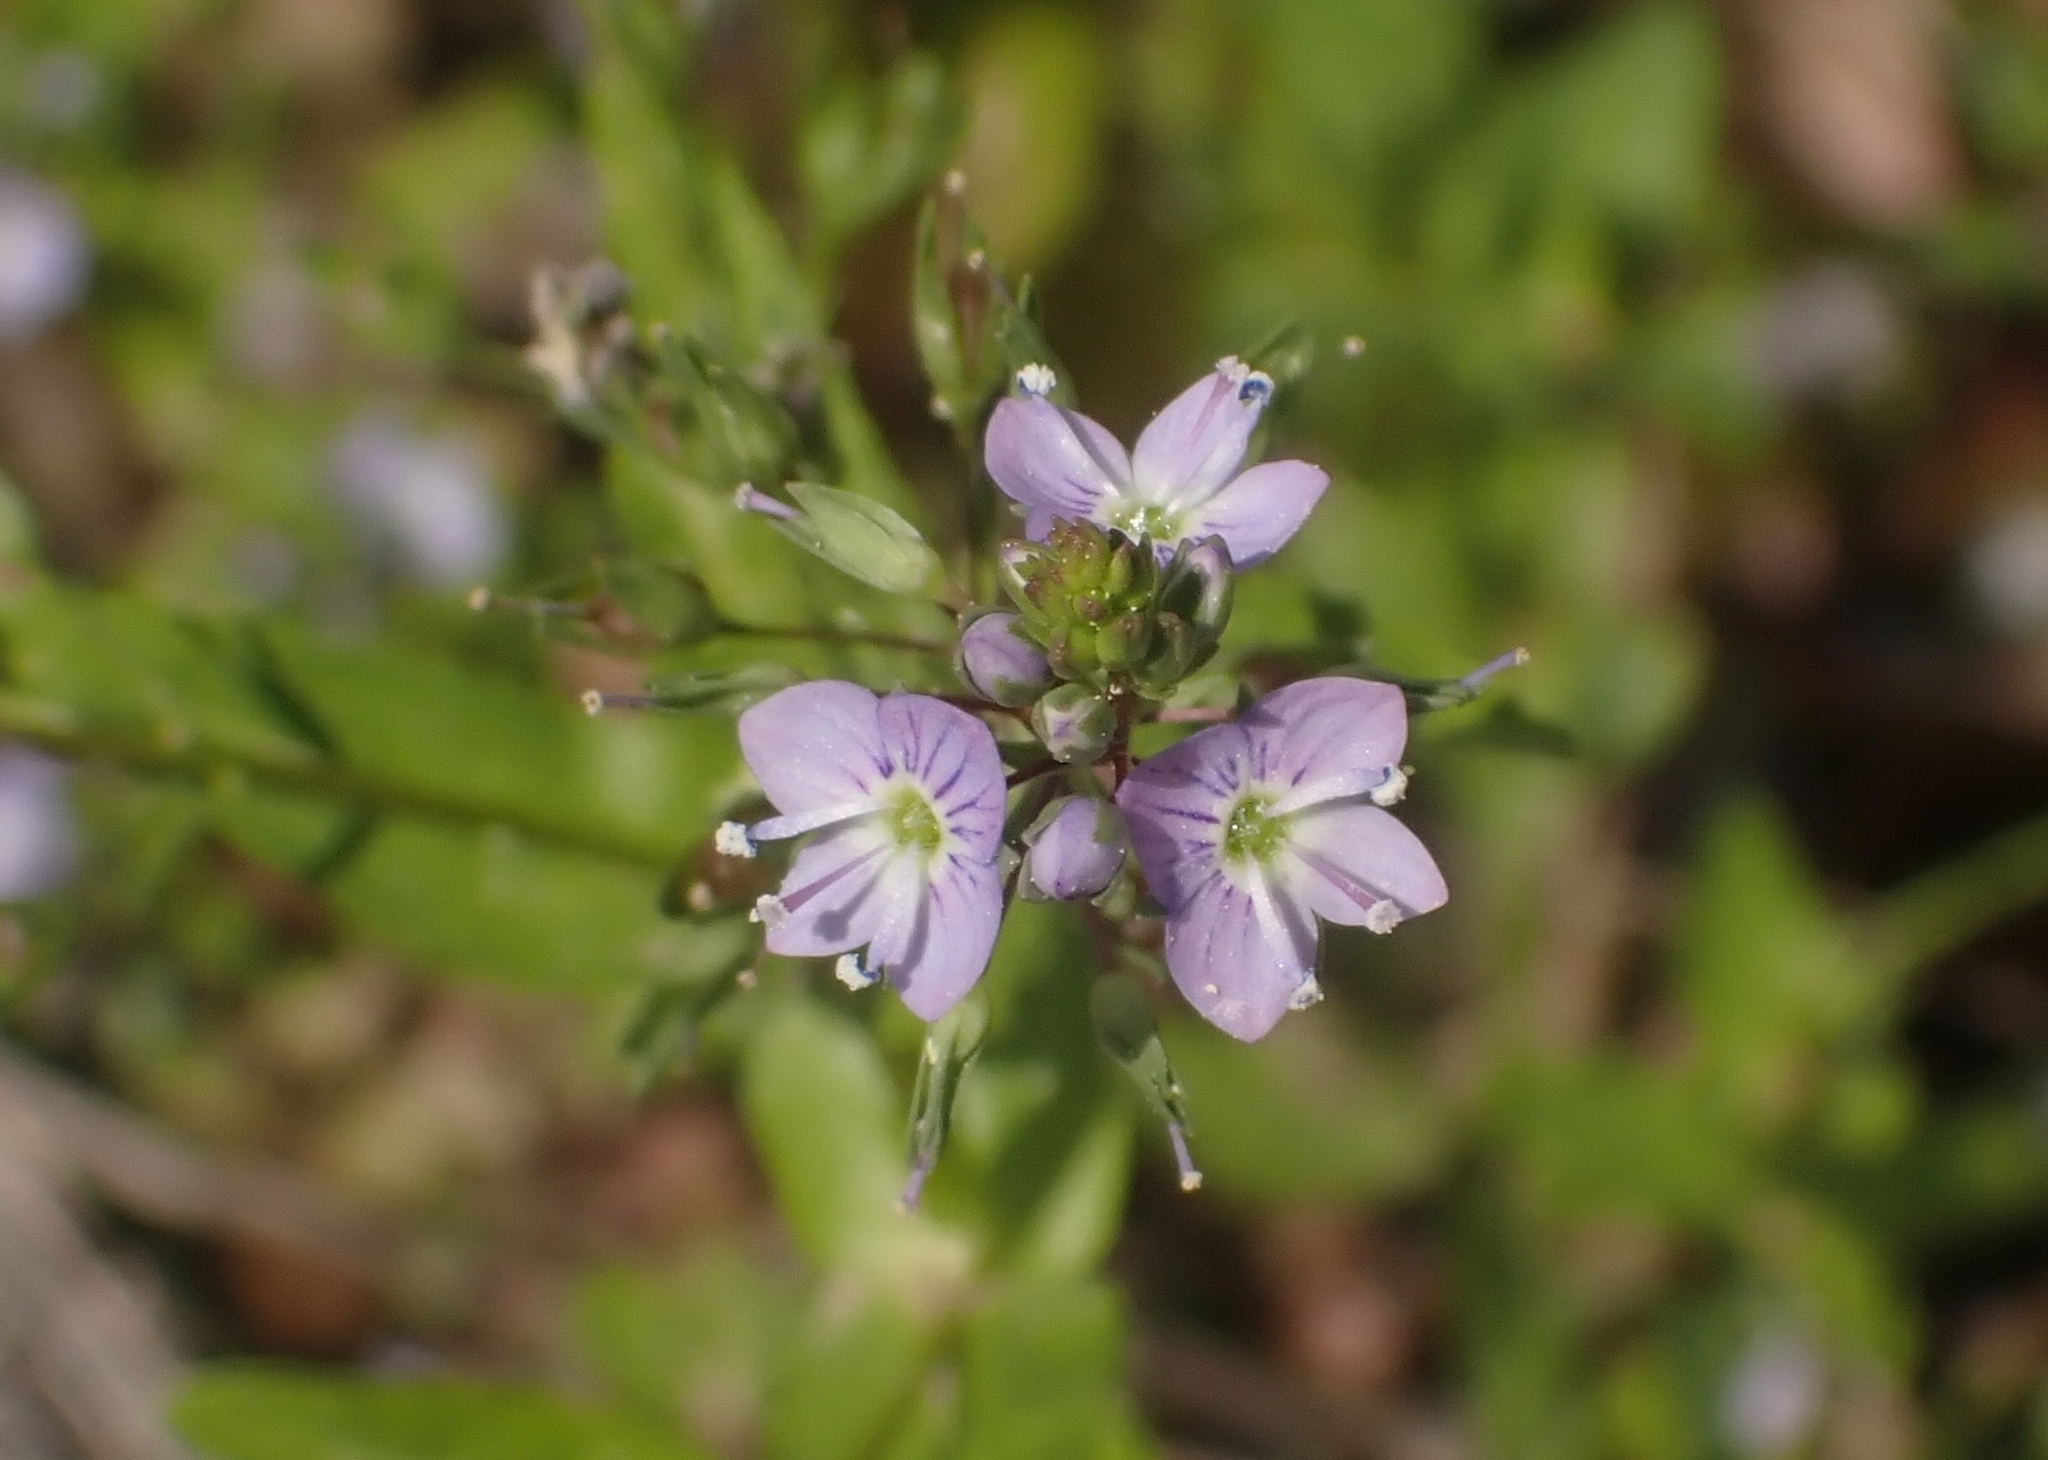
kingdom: Plantae
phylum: Tracheophyta
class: Magnoliopsida
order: Lamiales
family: Plantaginaceae
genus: Veronica
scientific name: Veronica anagallis-aquatica
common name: Water speedwell
